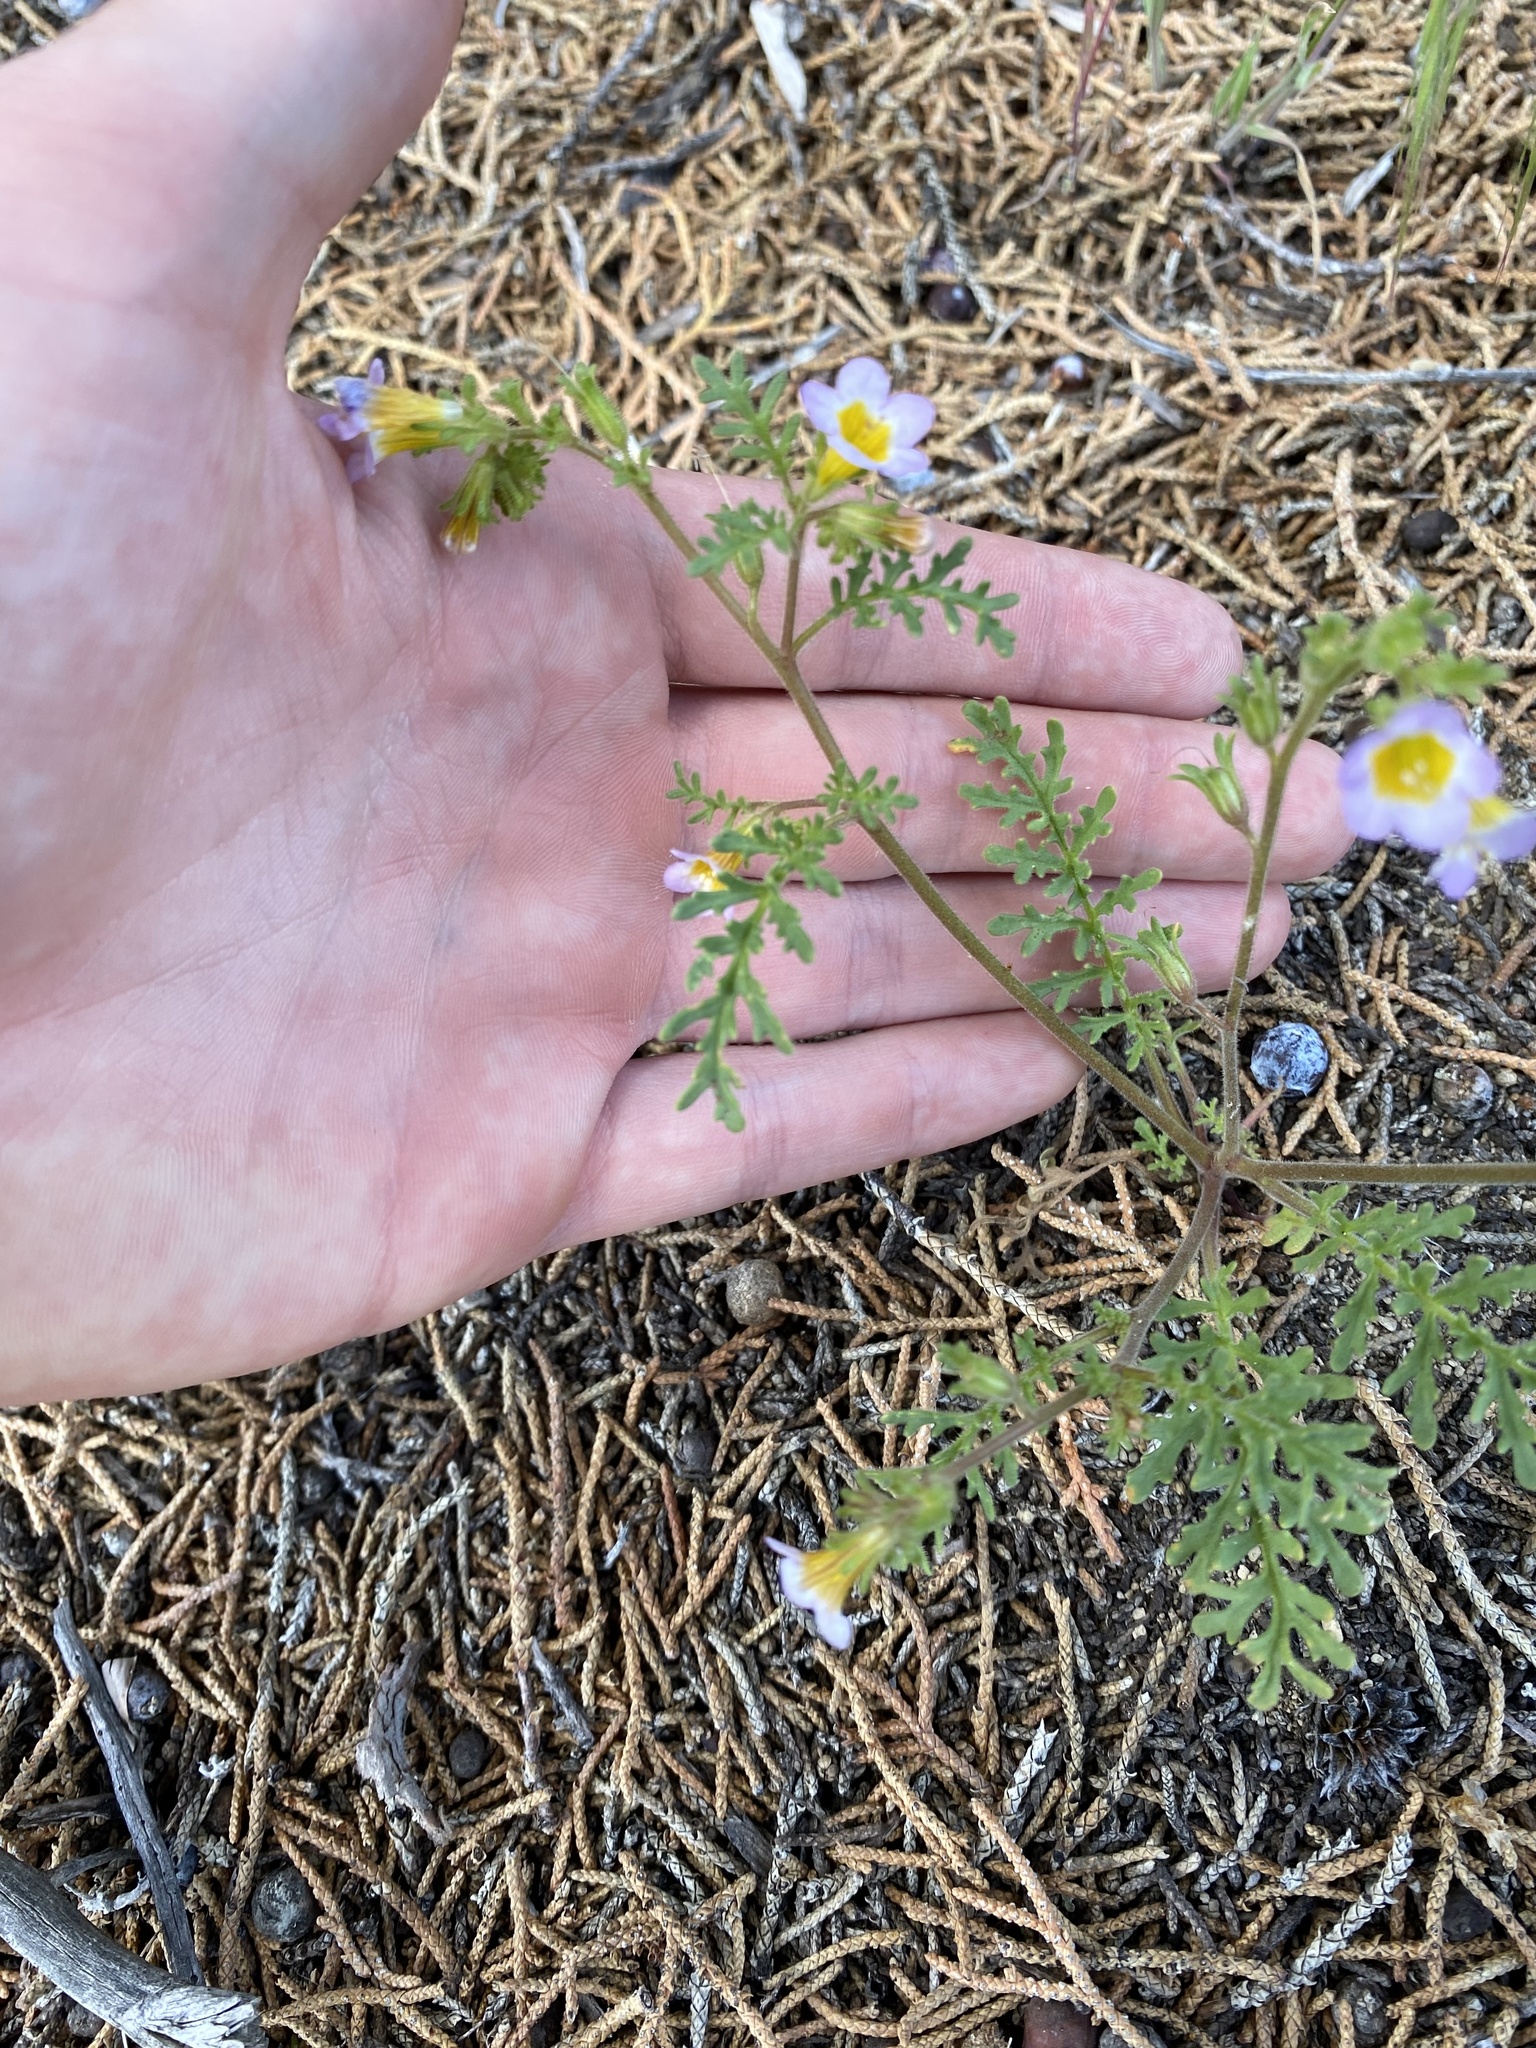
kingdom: Plantae
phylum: Tracheophyta
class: Magnoliopsida
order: Boraginales
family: Hydrophyllaceae
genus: Phacelia
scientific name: Phacelia leibergii
